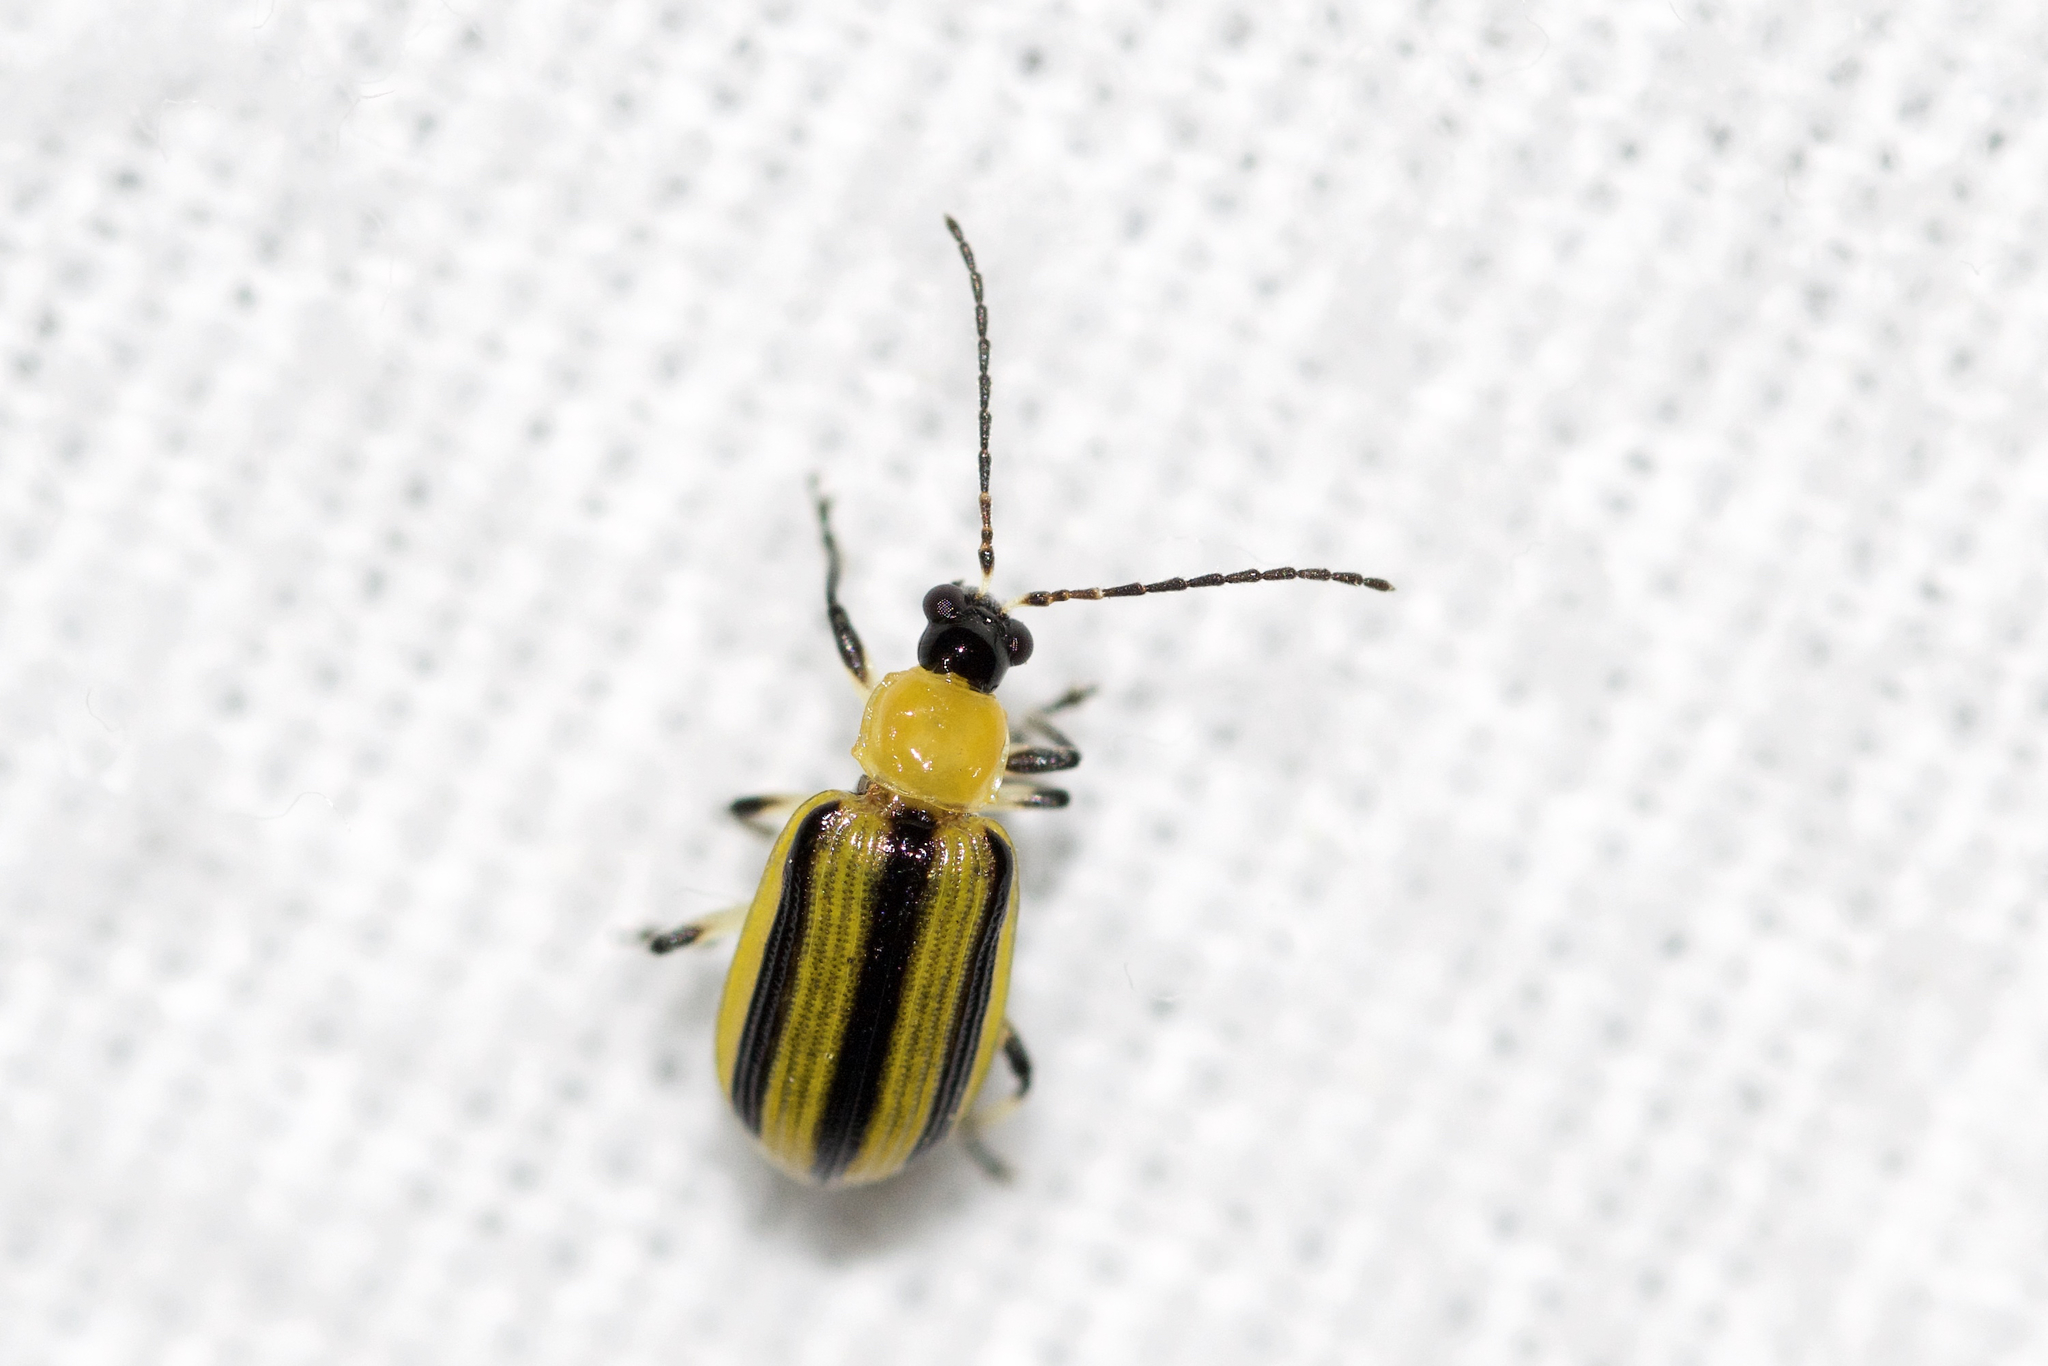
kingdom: Animalia
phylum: Arthropoda
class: Insecta
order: Coleoptera
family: Chrysomelidae
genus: Acalymma
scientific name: Acalymma vittatum
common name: Striped cucumber beetle
